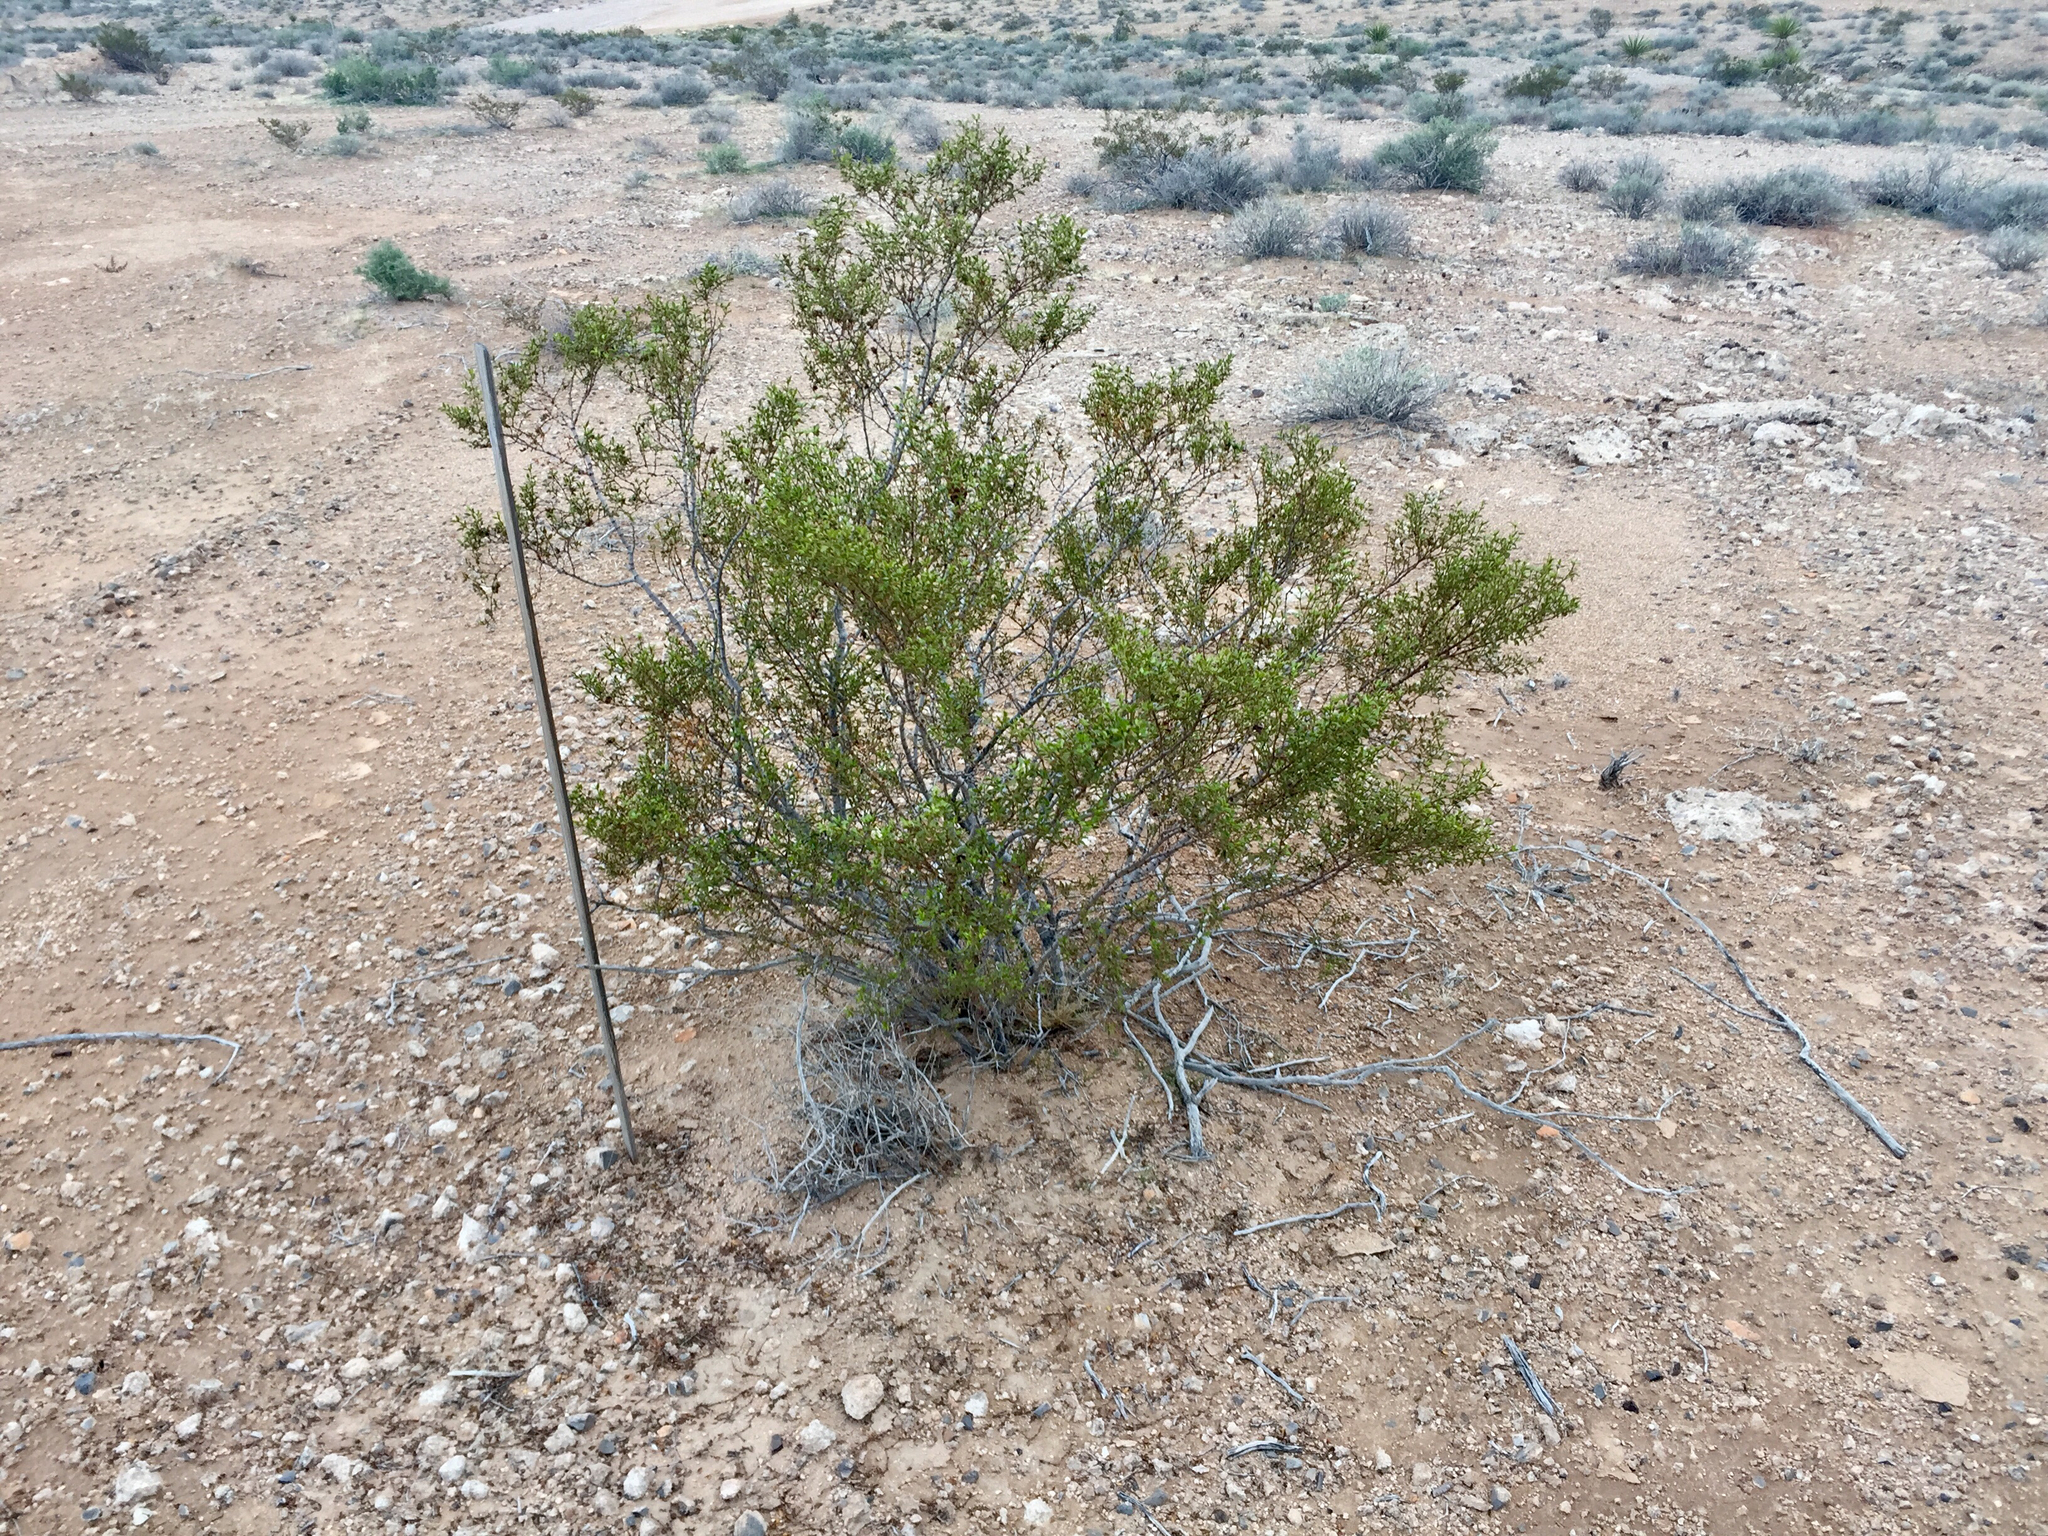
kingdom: Plantae
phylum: Tracheophyta
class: Magnoliopsida
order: Zygophyllales
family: Zygophyllaceae
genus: Larrea
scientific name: Larrea tridentata
